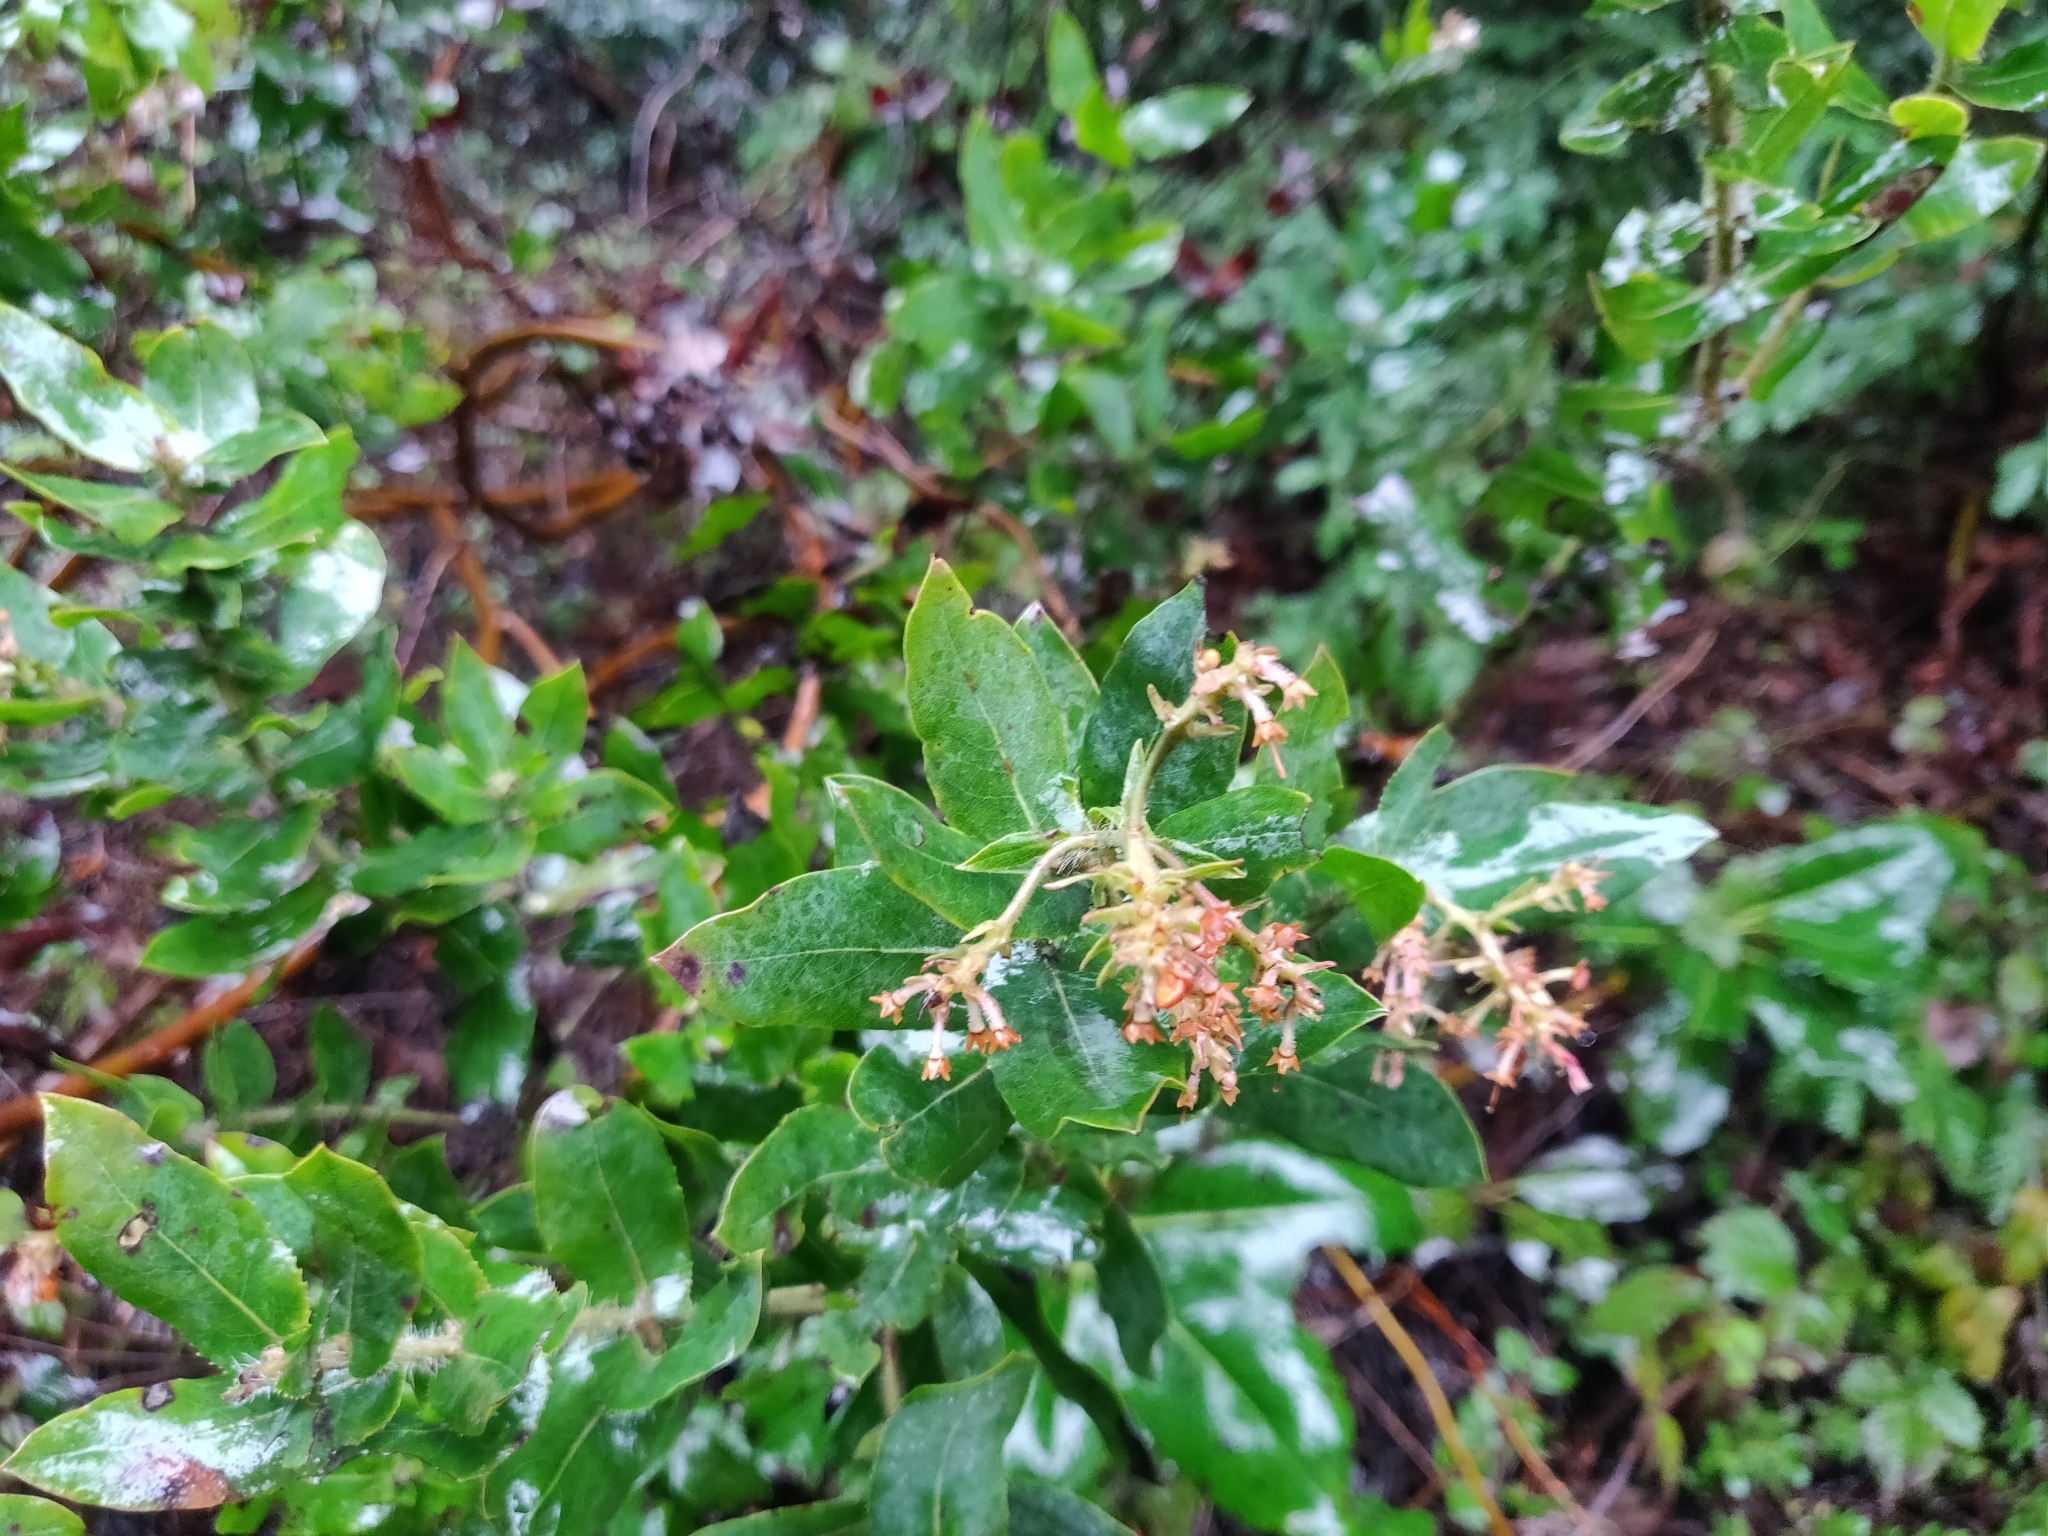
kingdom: Plantae
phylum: Tracheophyta
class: Magnoliopsida
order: Ericales
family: Ericaceae
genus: Arctostaphylos
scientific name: Arctostaphylos andersonii
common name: Santa cruz manzanita
